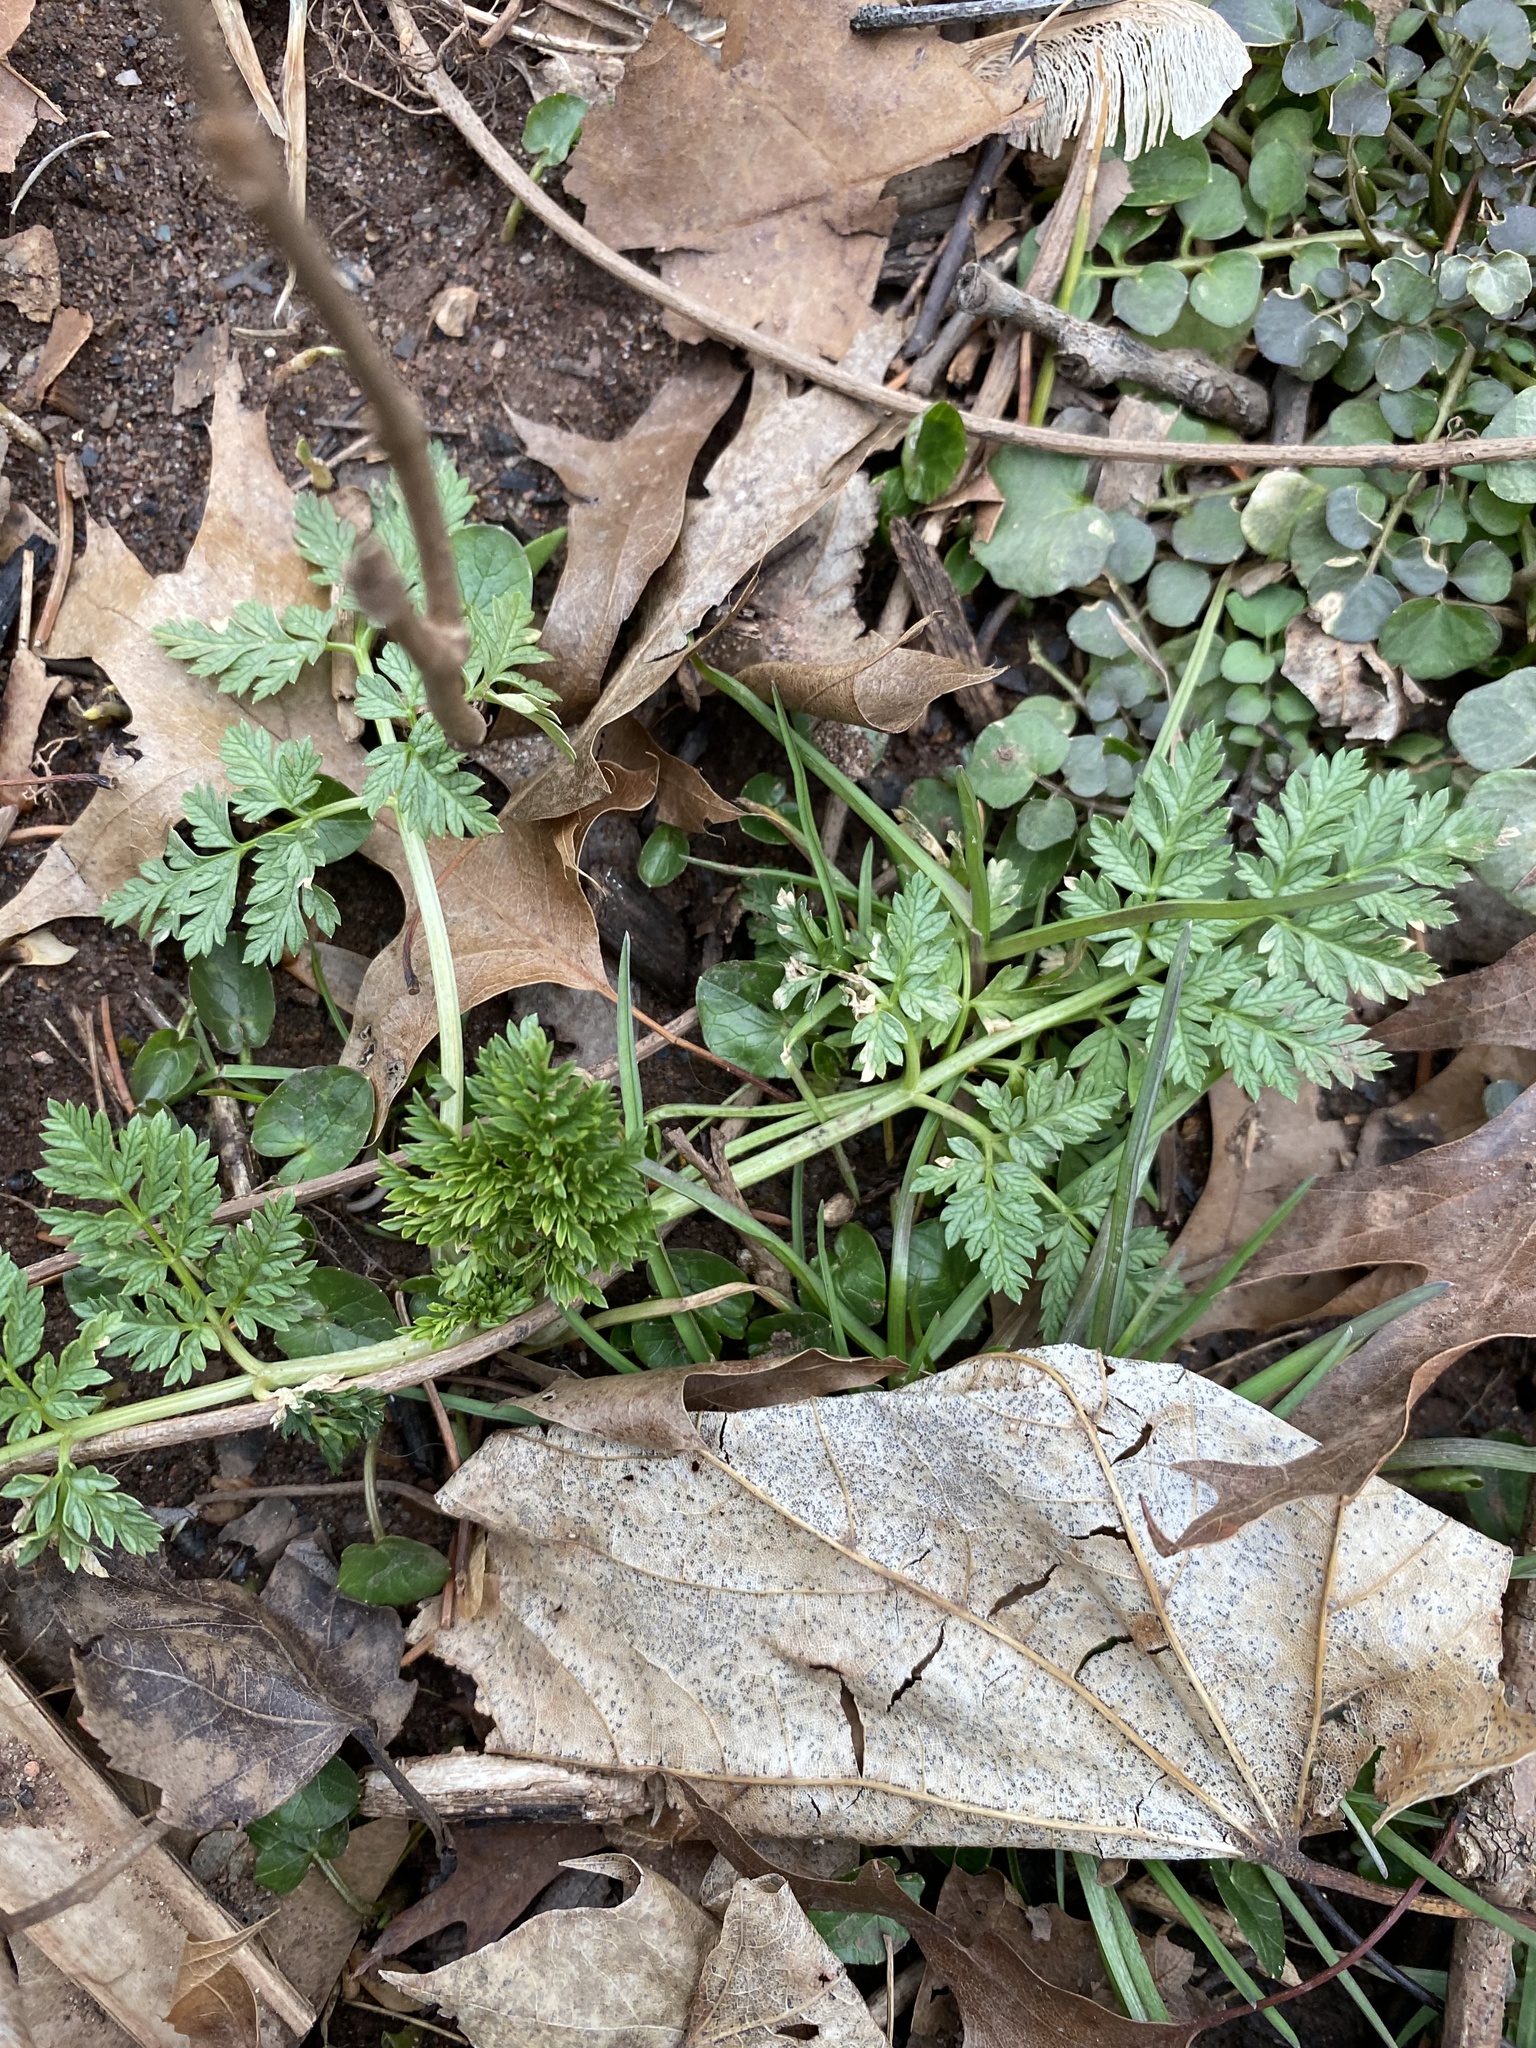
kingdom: Plantae
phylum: Tracheophyta
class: Magnoliopsida
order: Apiales
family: Apiaceae
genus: Conium
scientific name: Conium maculatum
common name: Hemlock
